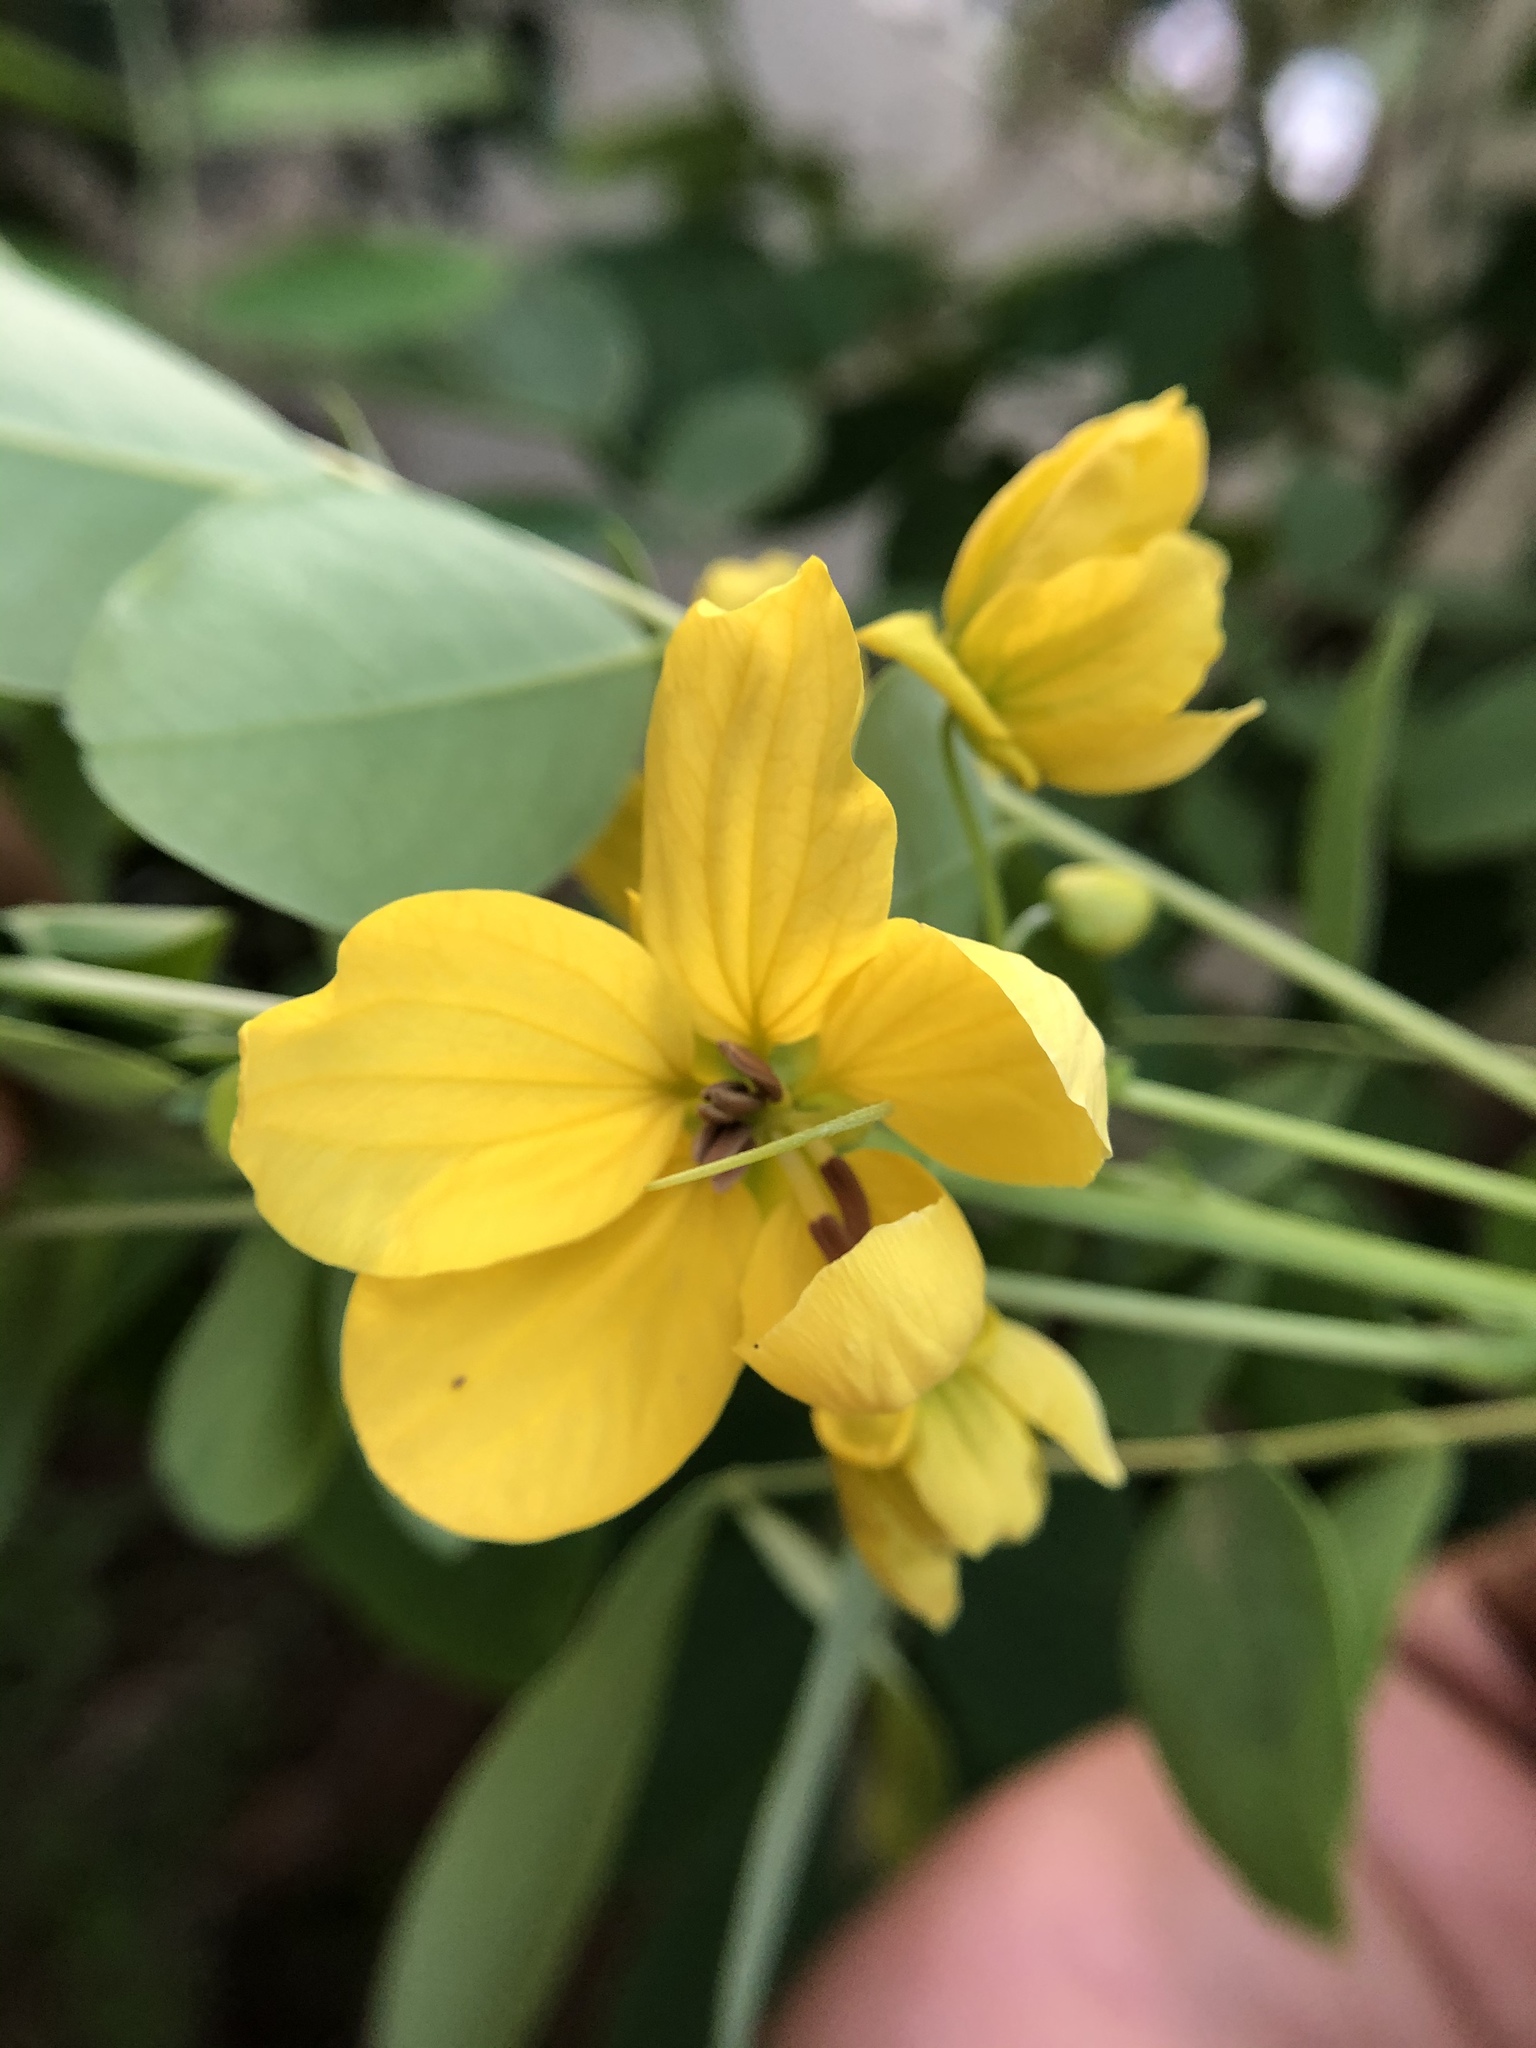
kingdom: Plantae
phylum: Tracheophyta
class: Magnoliopsida
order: Fabales
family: Fabaceae
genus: Senna
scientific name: Senna sulfurea
